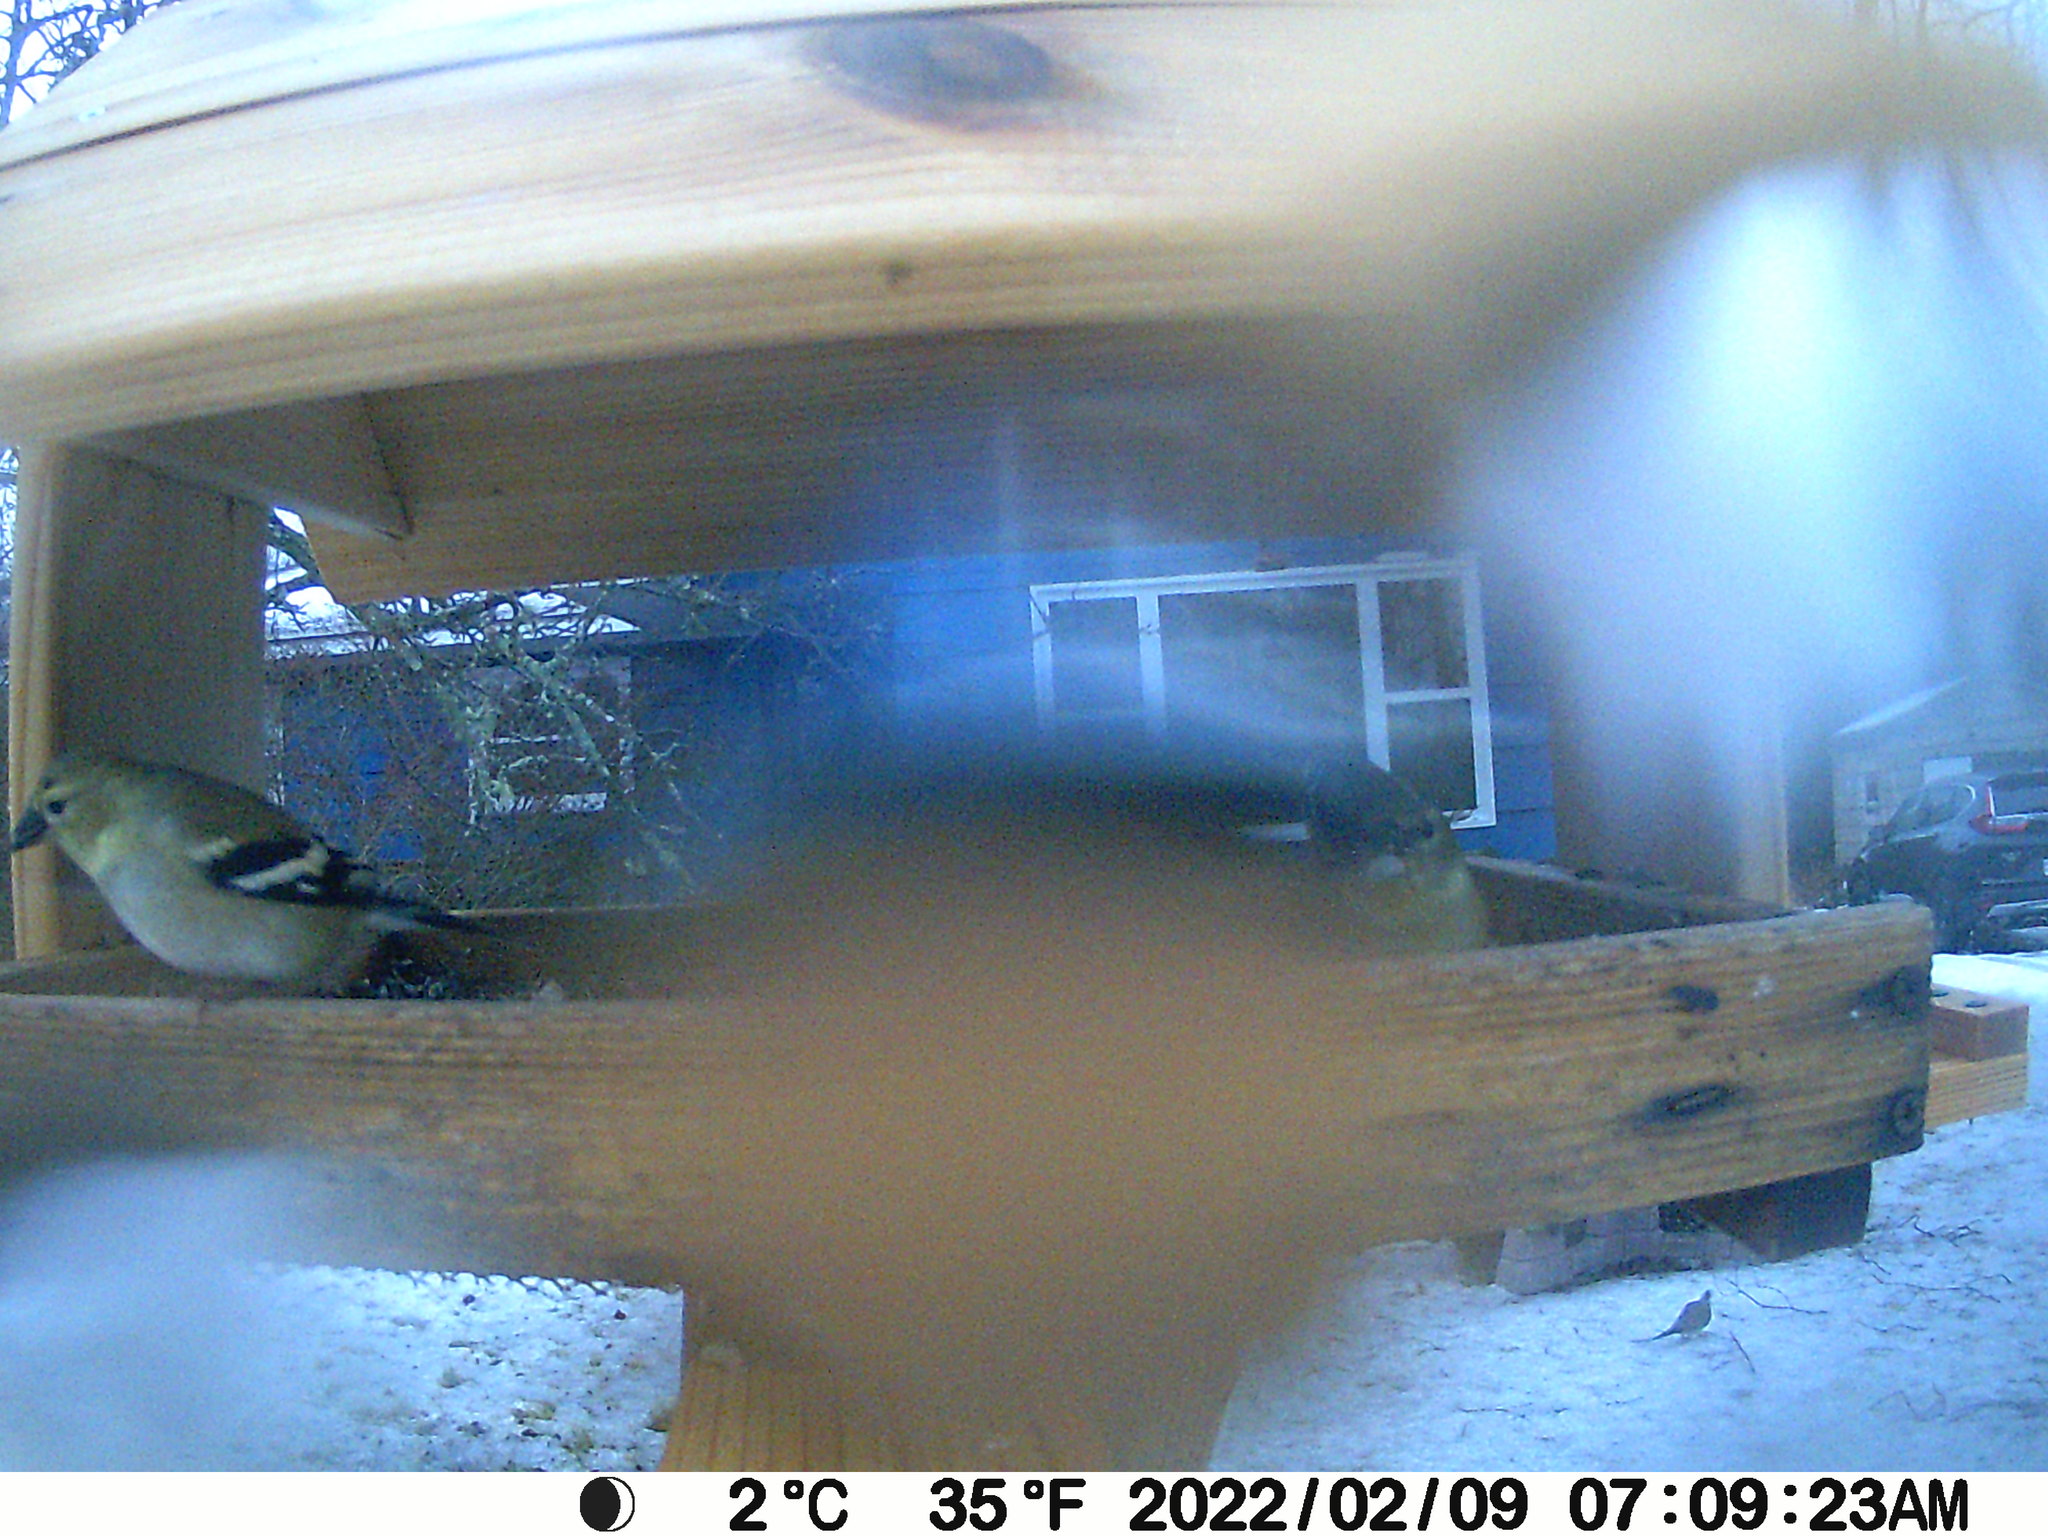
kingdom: Animalia
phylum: Chordata
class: Aves
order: Columbiformes
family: Columbidae
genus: Zenaida
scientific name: Zenaida macroura
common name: Mourning dove
